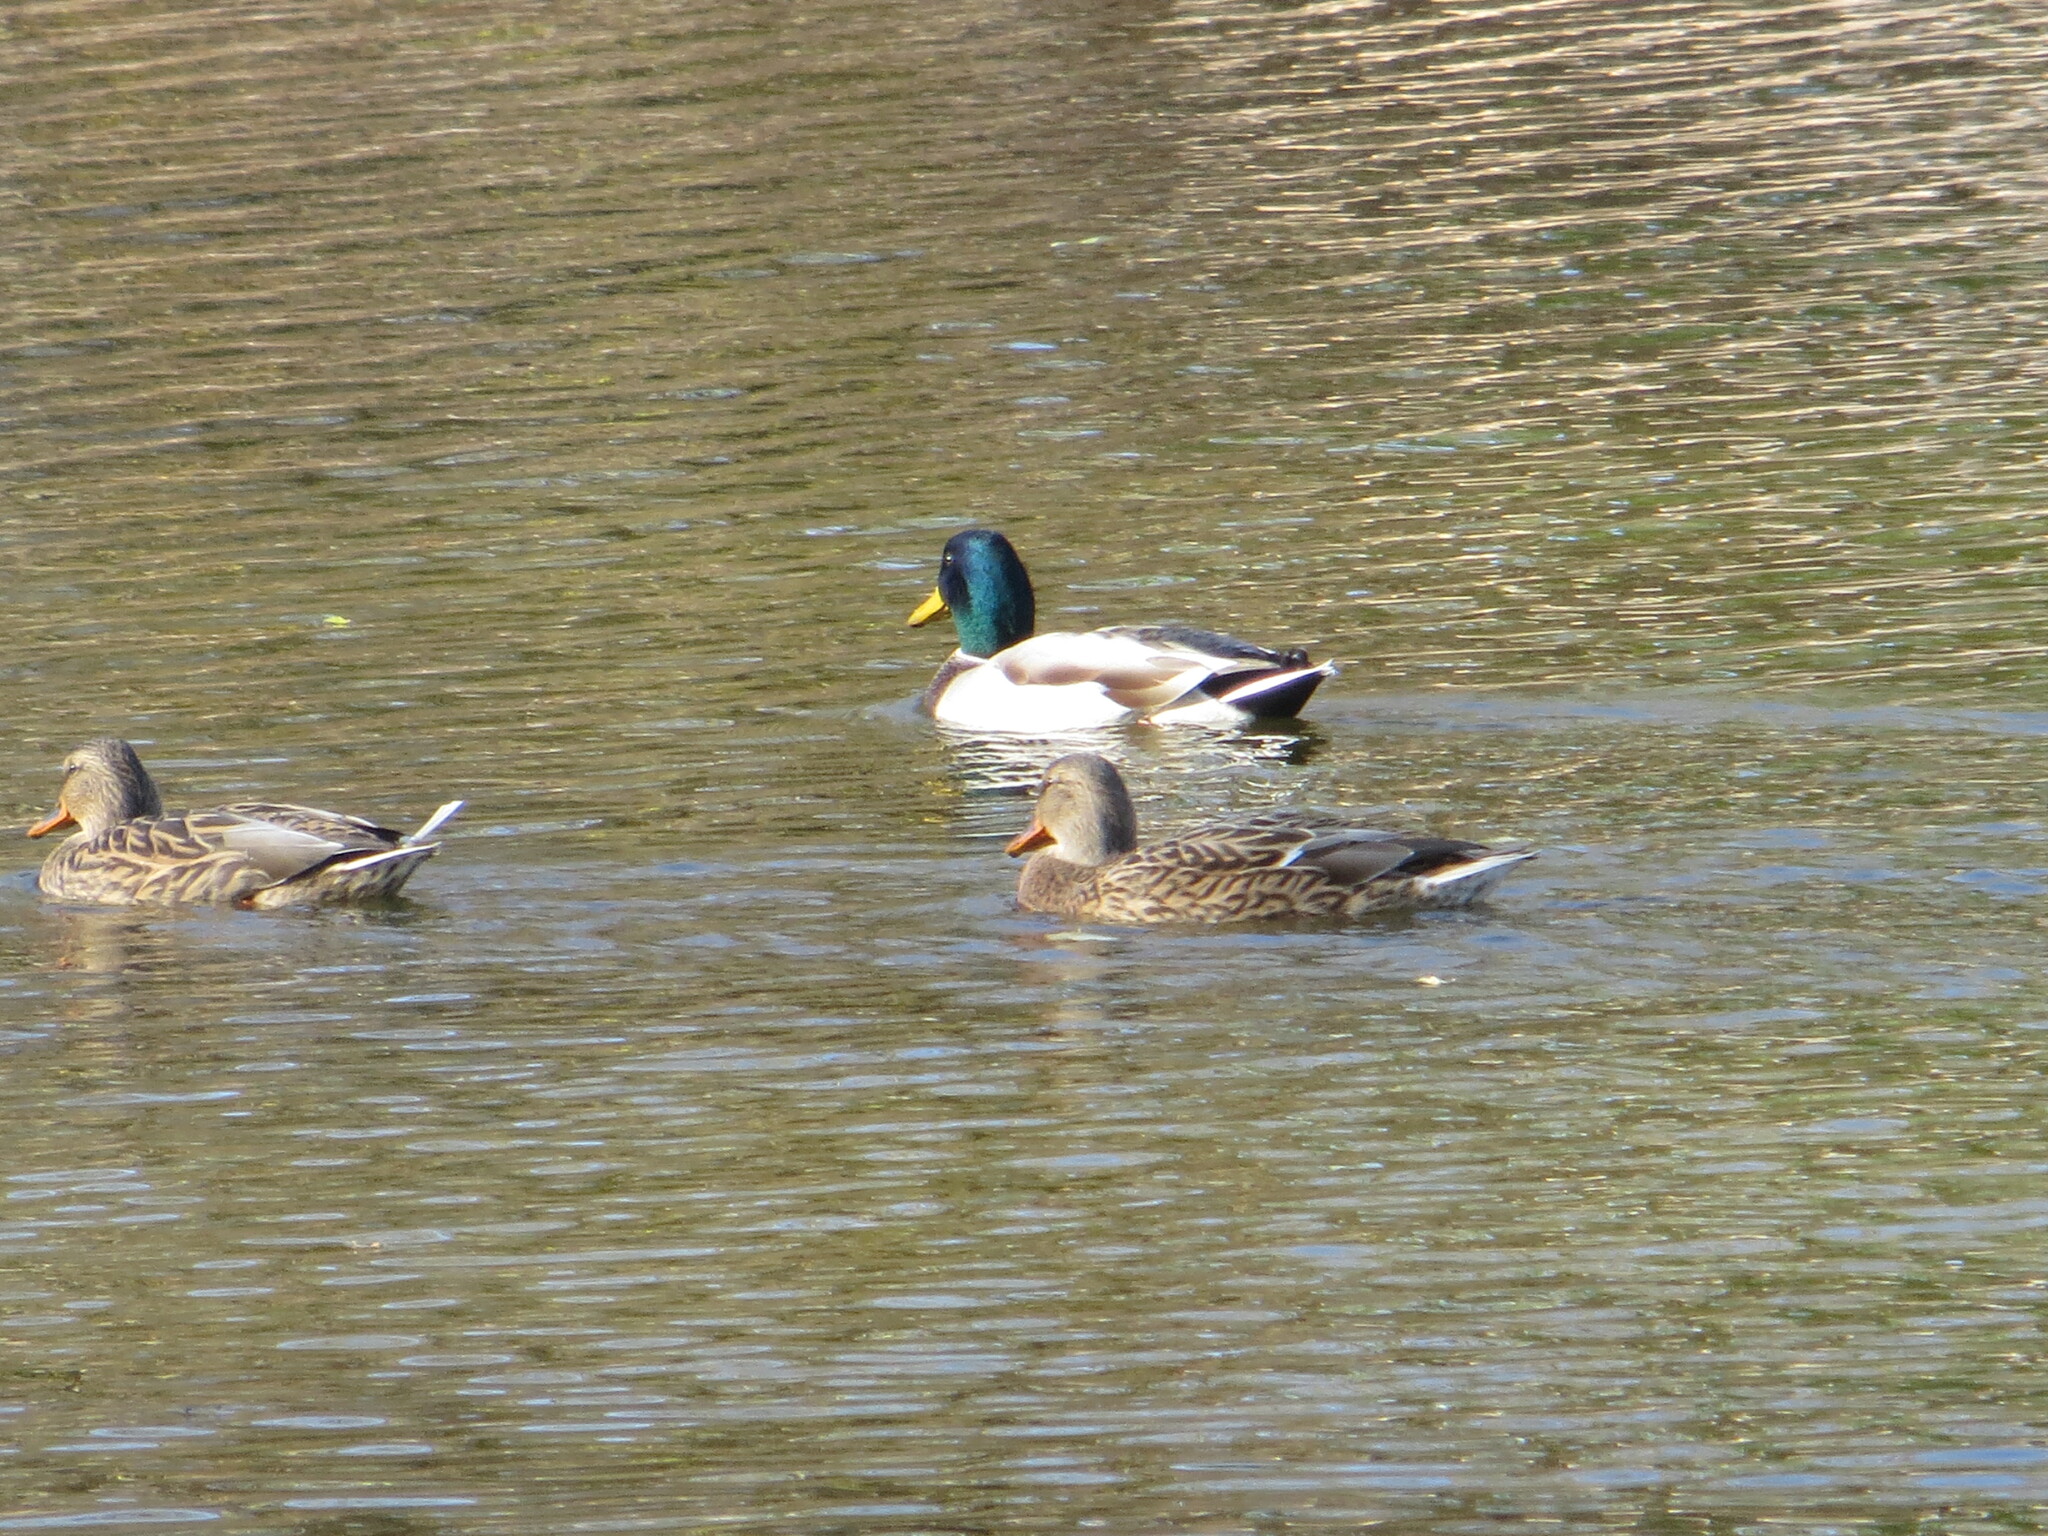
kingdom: Animalia
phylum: Chordata
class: Aves
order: Anseriformes
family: Anatidae
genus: Anas
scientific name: Anas platyrhynchos
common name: Mallard
